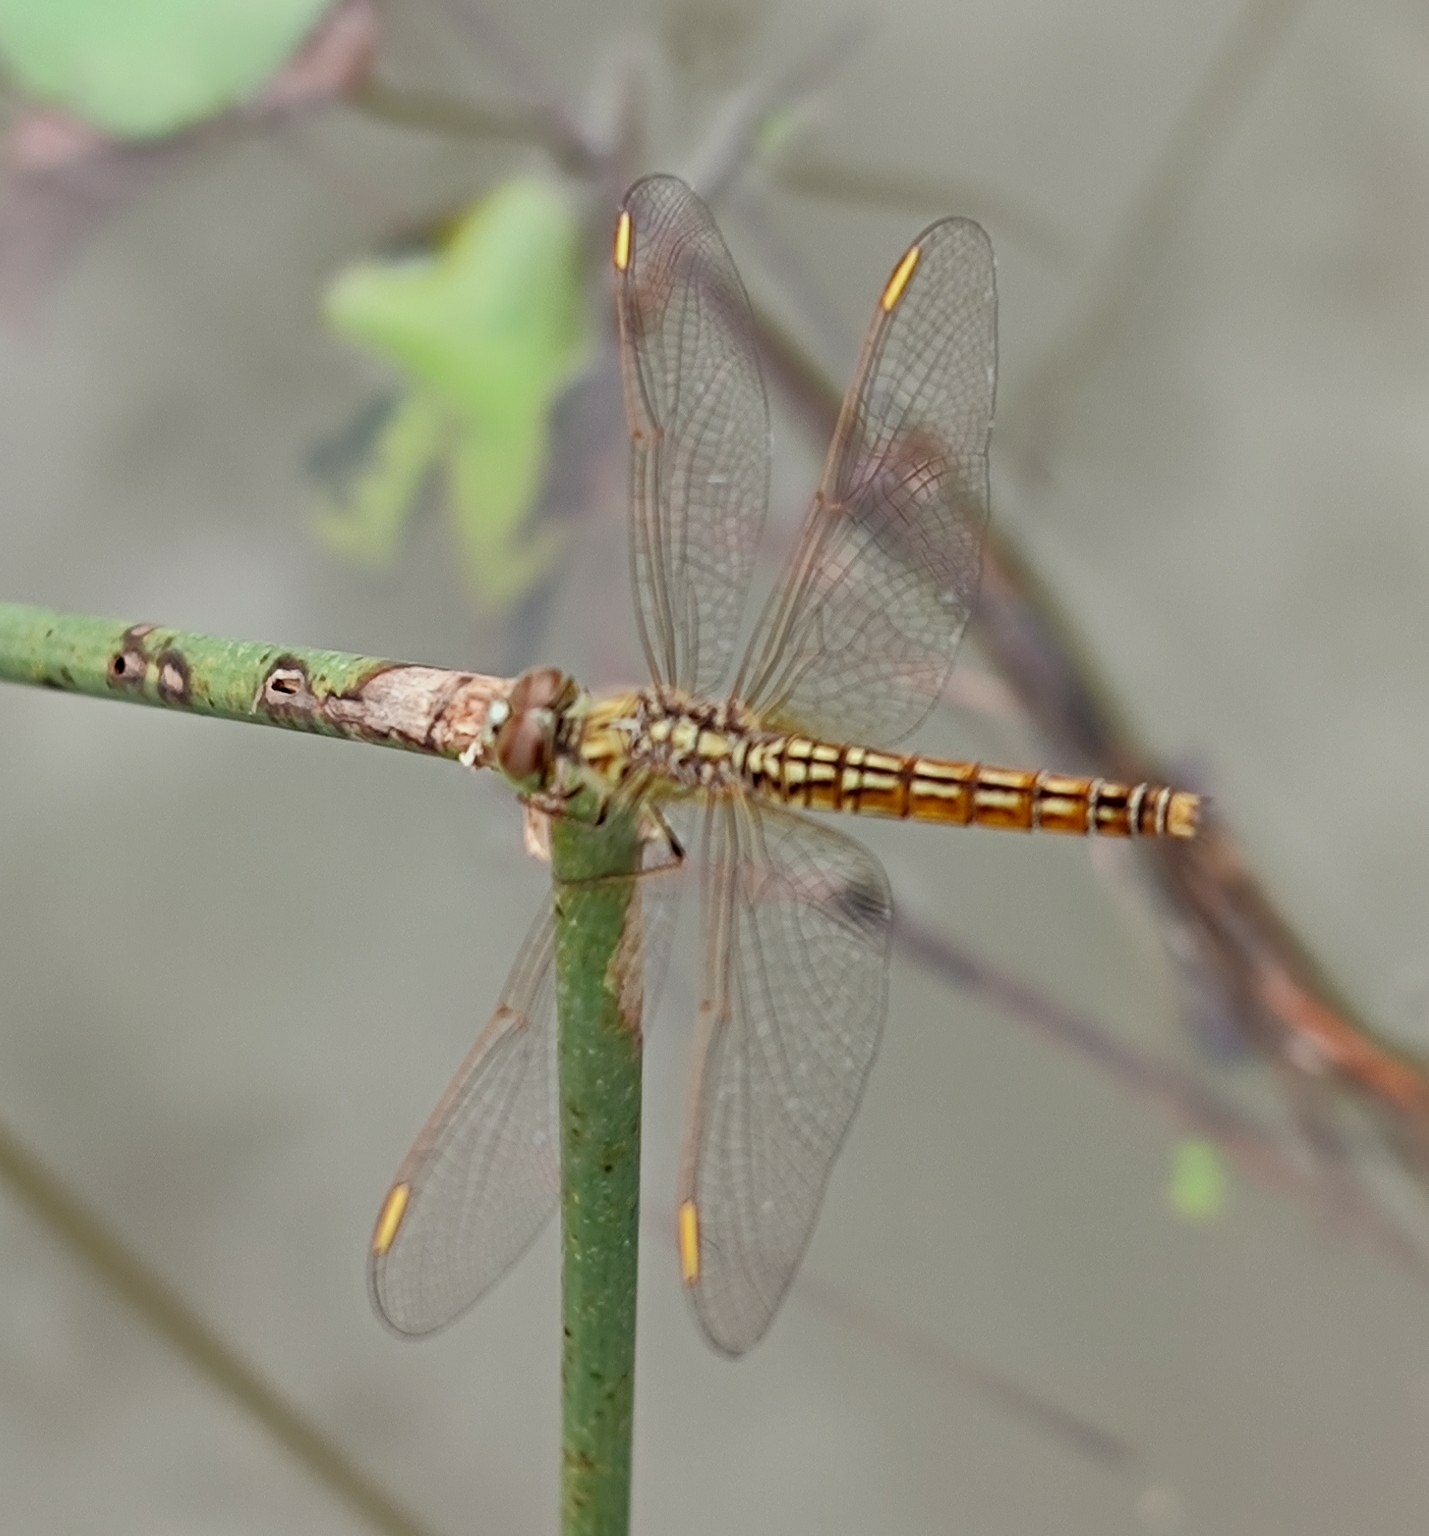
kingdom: Animalia
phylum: Arthropoda
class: Insecta
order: Odonata
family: Libellulidae
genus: Brachythemis
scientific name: Brachythemis contaminata
